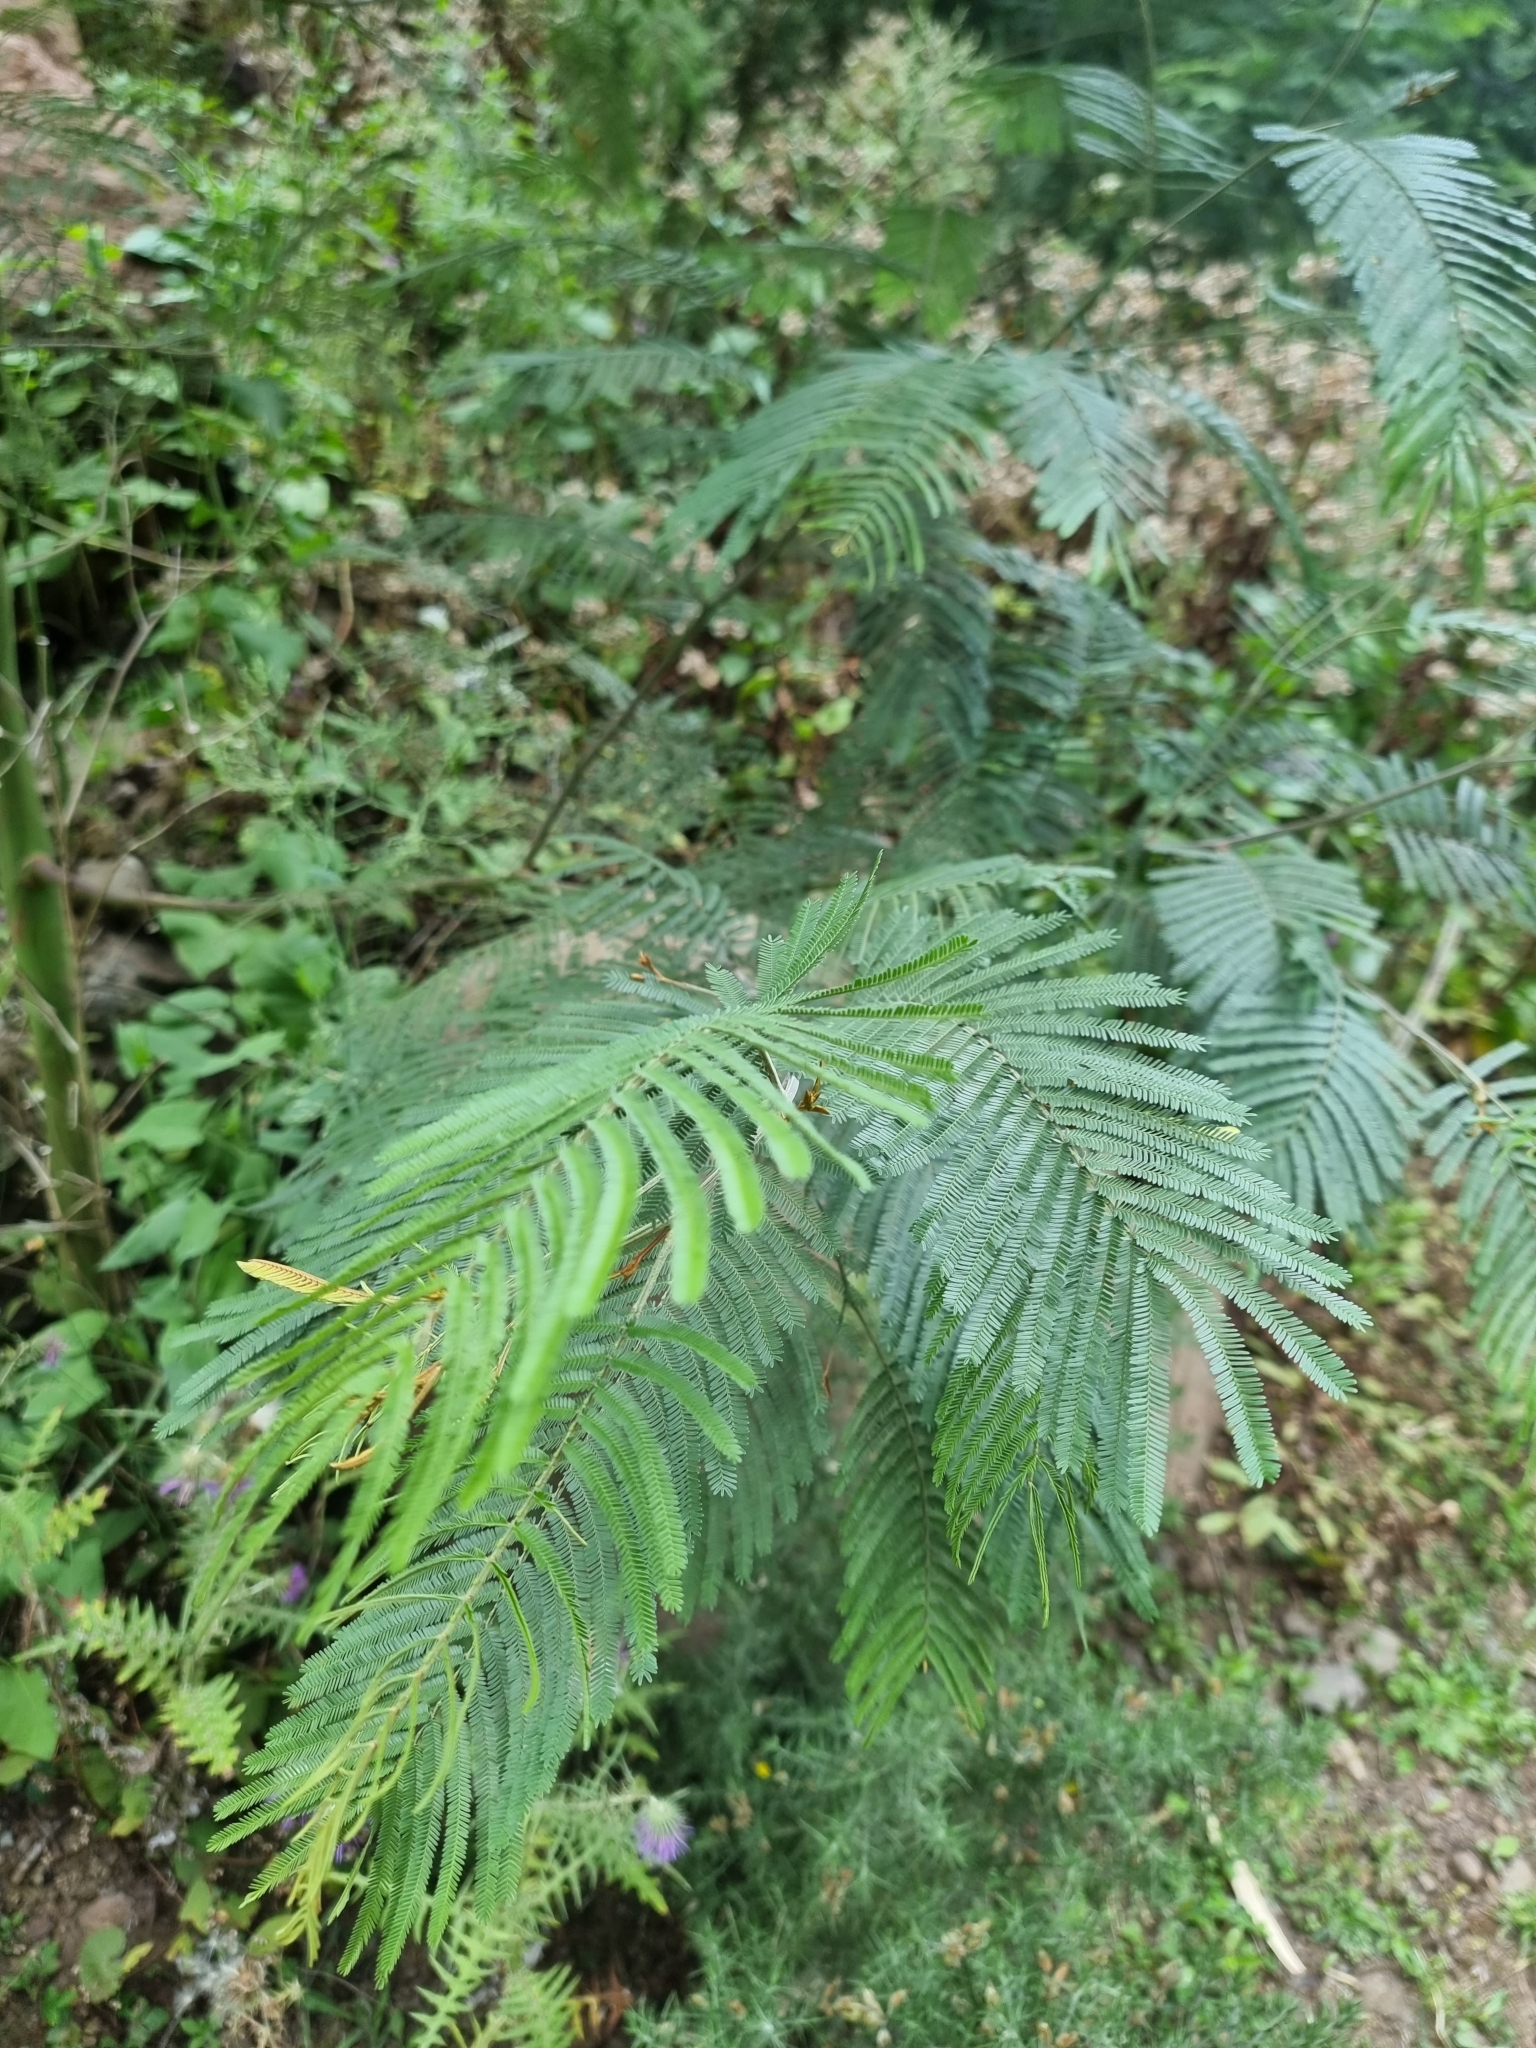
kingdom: Plantae
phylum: Tracheophyta
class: Magnoliopsida
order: Fabales
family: Fabaceae
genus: Acacia
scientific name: Acacia mearnsii
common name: Black wattle
